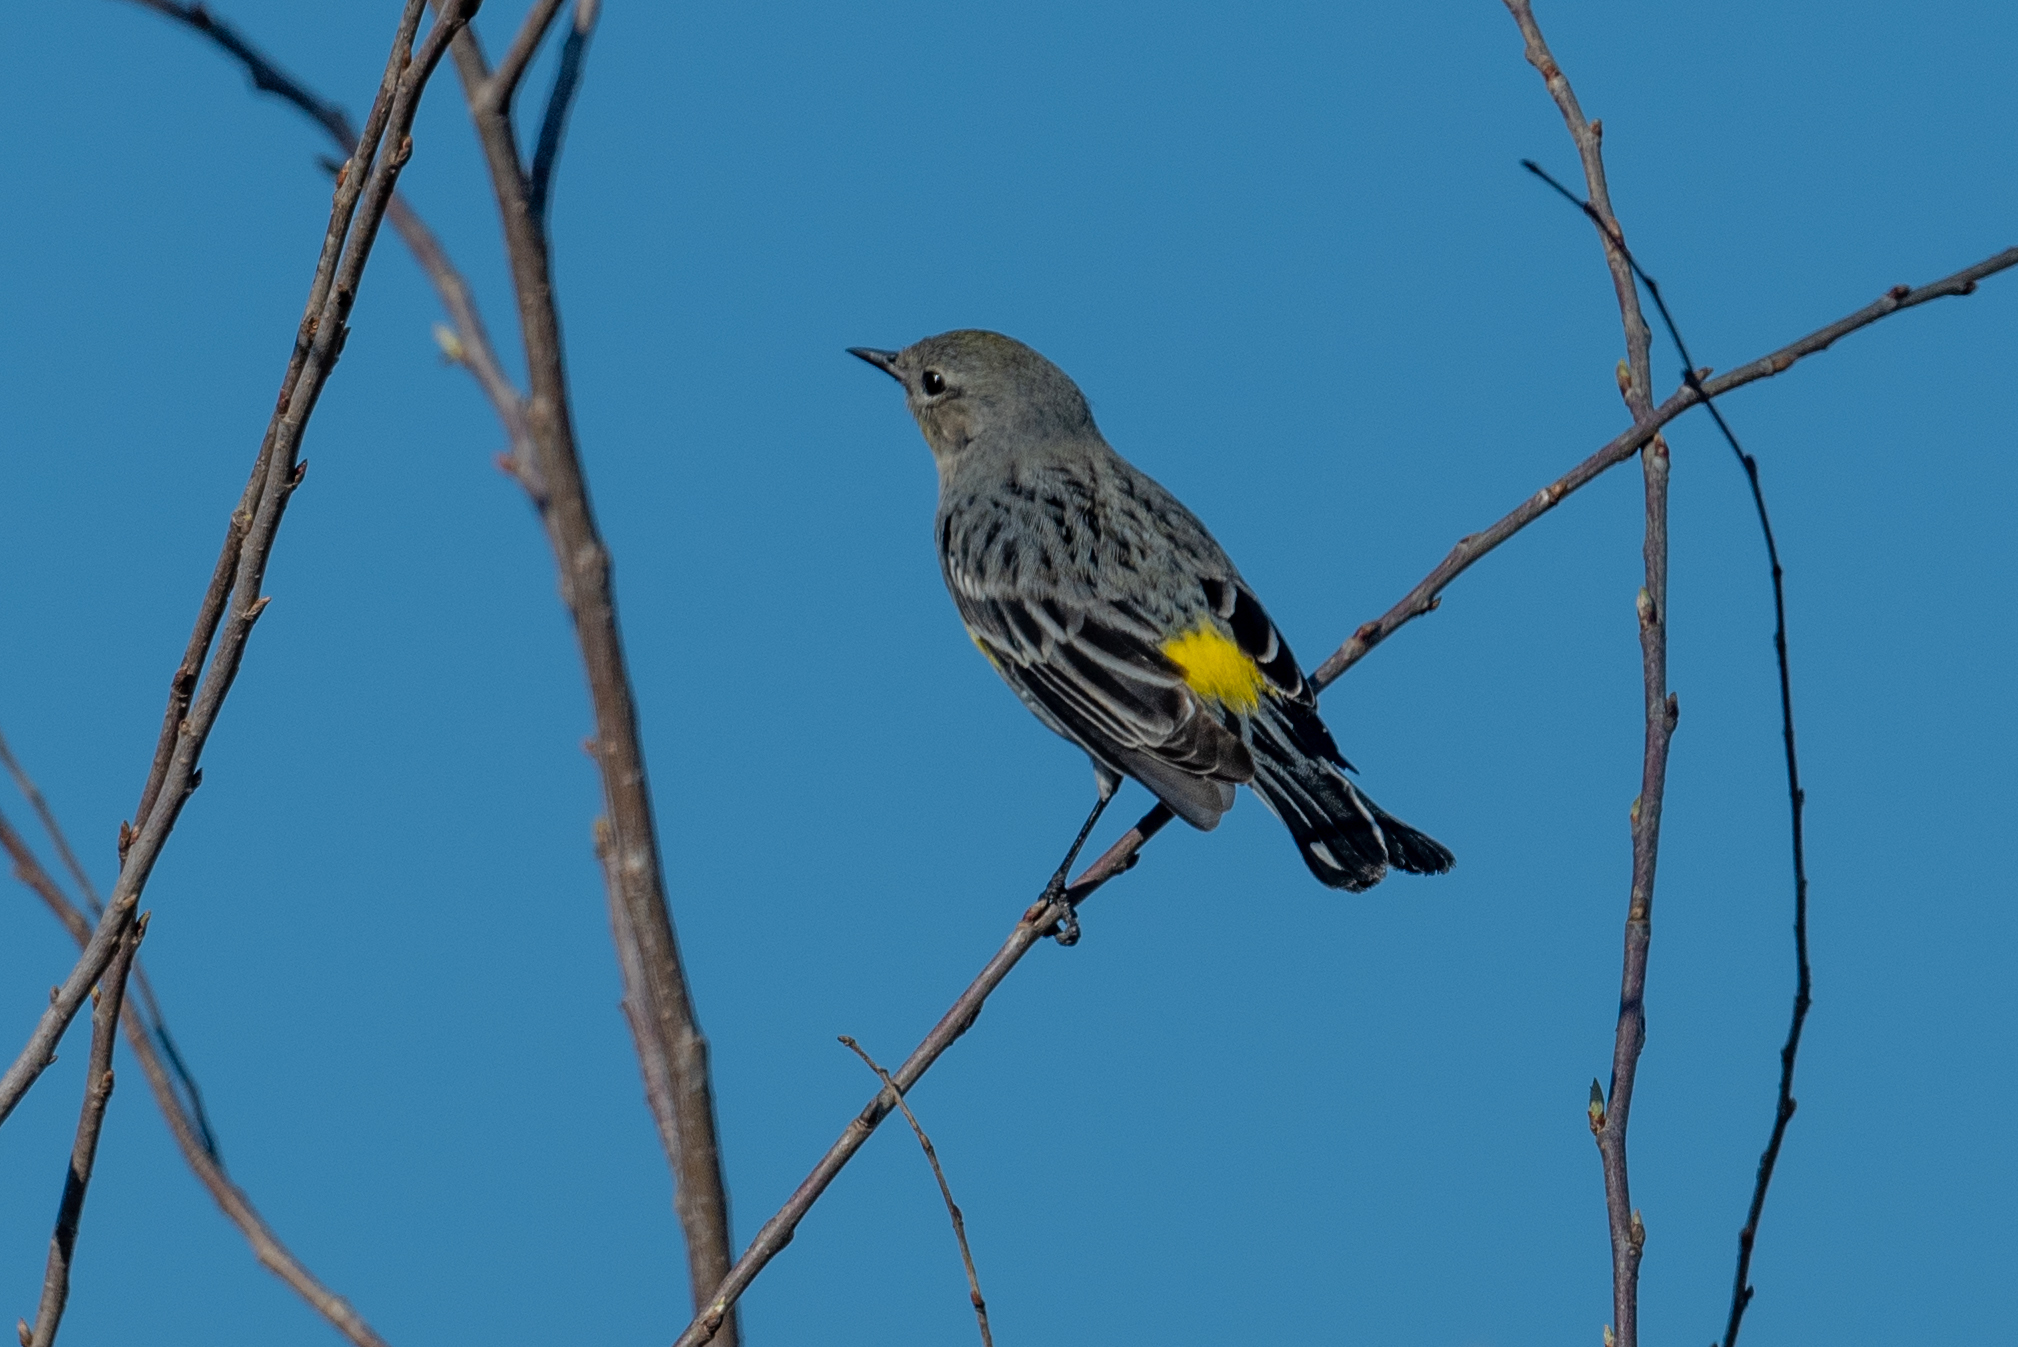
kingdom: Animalia
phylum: Chordata
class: Aves
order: Passeriformes
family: Parulidae
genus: Setophaga
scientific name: Setophaga coronata
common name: Myrtle warbler
